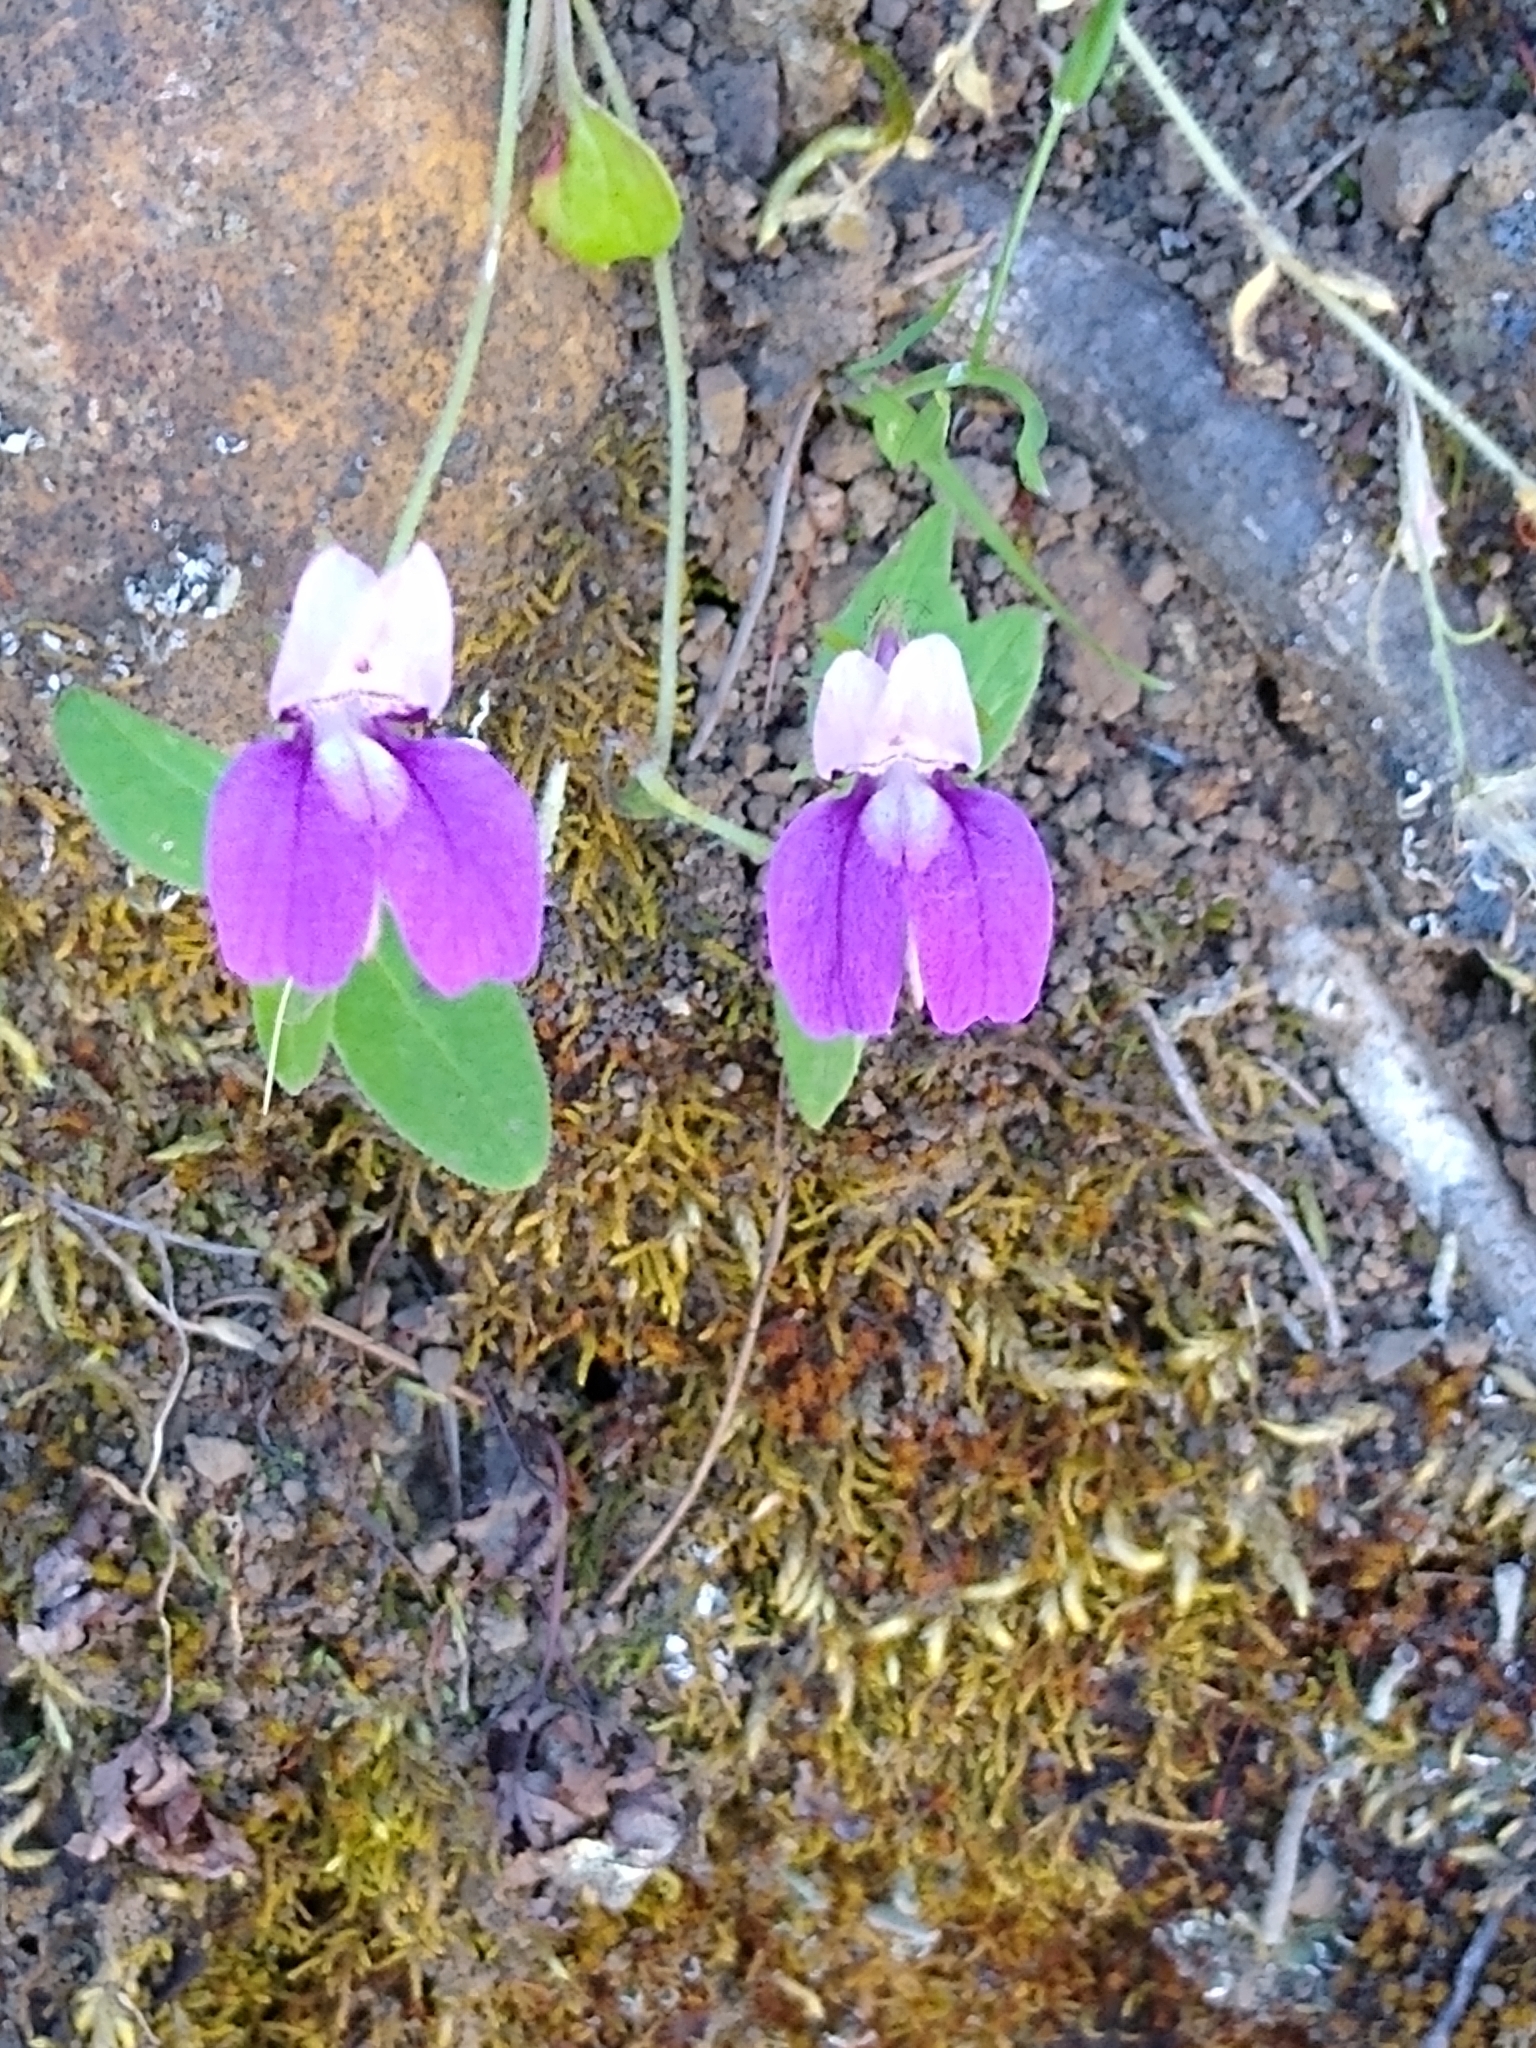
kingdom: Plantae
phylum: Tracheophyta
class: Magnoliopsida
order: Lamiales
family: Plantaginaceae
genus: Collinsia
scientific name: Collinsia sparsiflora
